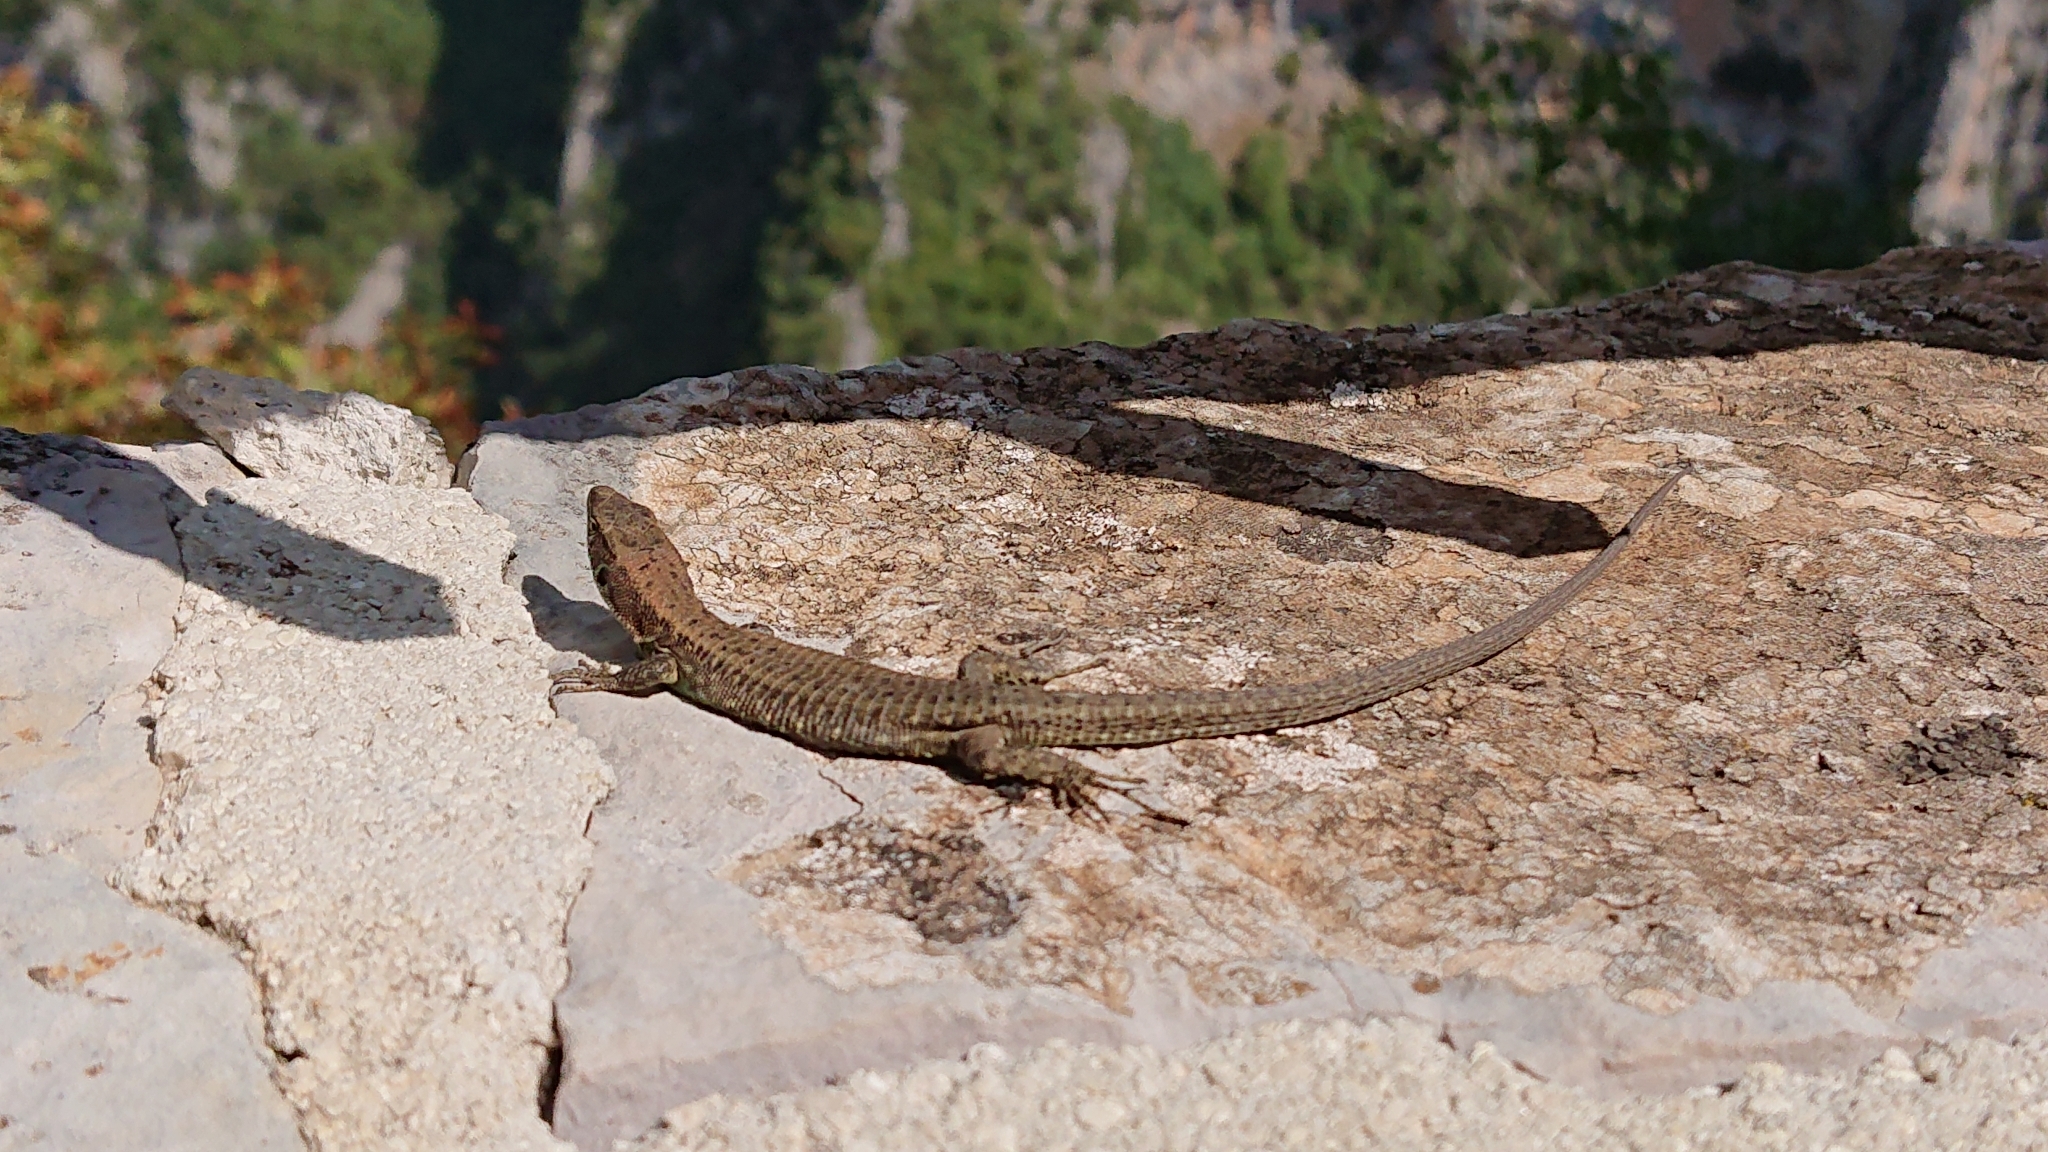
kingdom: Animalia
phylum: Chordata
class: Squamata
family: Lacertidae
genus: Algyroides
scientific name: Algyroides nigropunctatus
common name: Blue-throated keeled lizard
